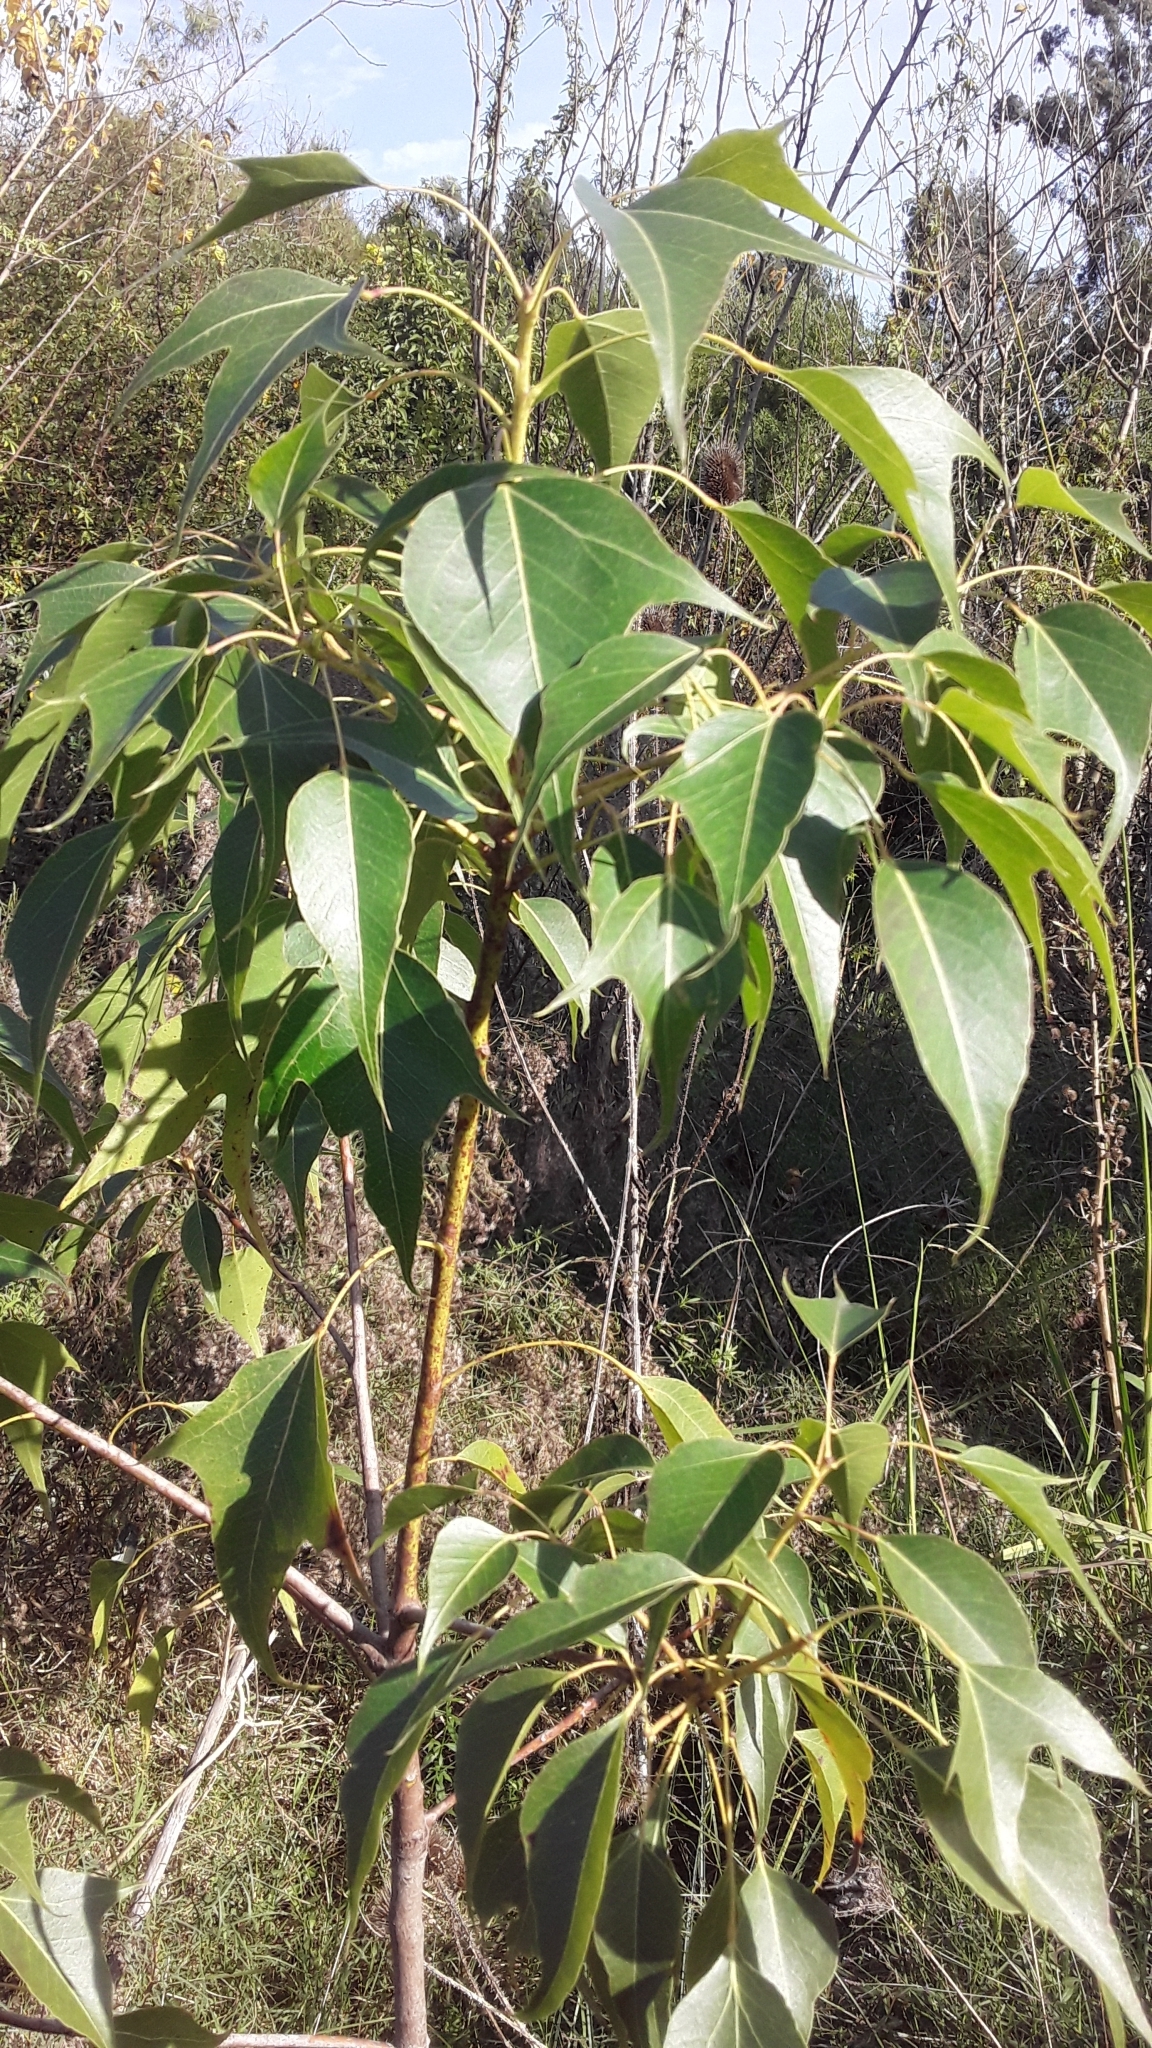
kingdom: Plantae
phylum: Tracheophyta
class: Magnoliopsida
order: Malvales
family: Malvaceae
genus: Brachychiton
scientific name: Brachychiton populneus
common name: Kurrajong
